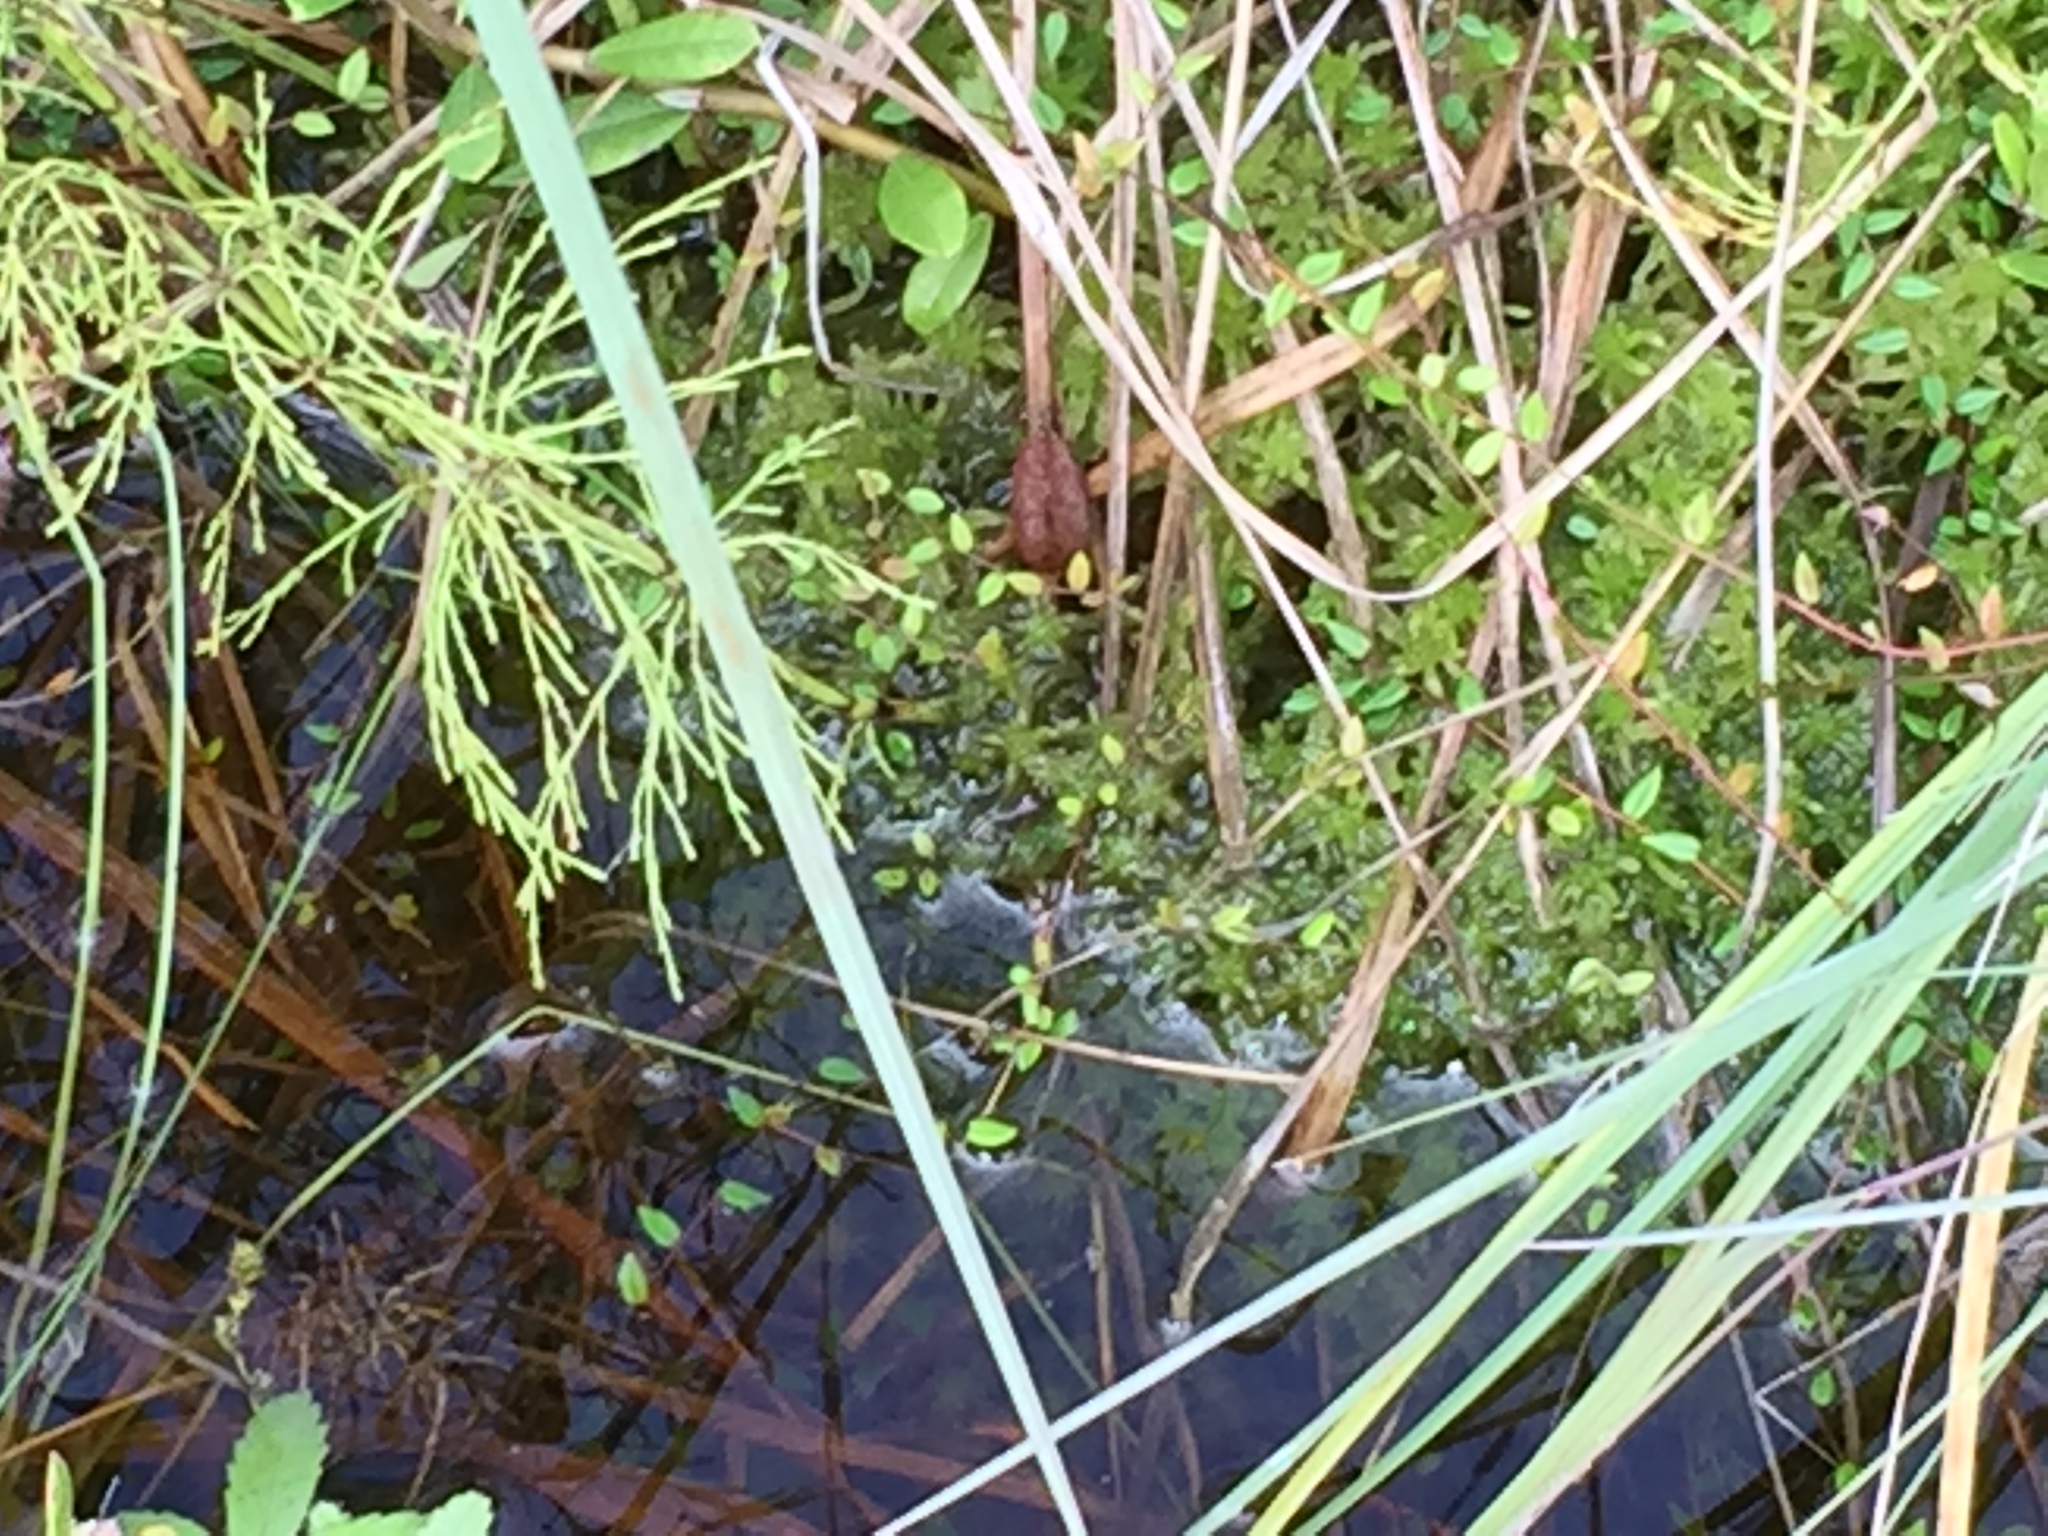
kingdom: Plantae
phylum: Tracheophyta
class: Magnoliopsida
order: Ericales
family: Ericaceae
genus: Vaccinium
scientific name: Vaccinium oxycoccos
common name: Cranberry
